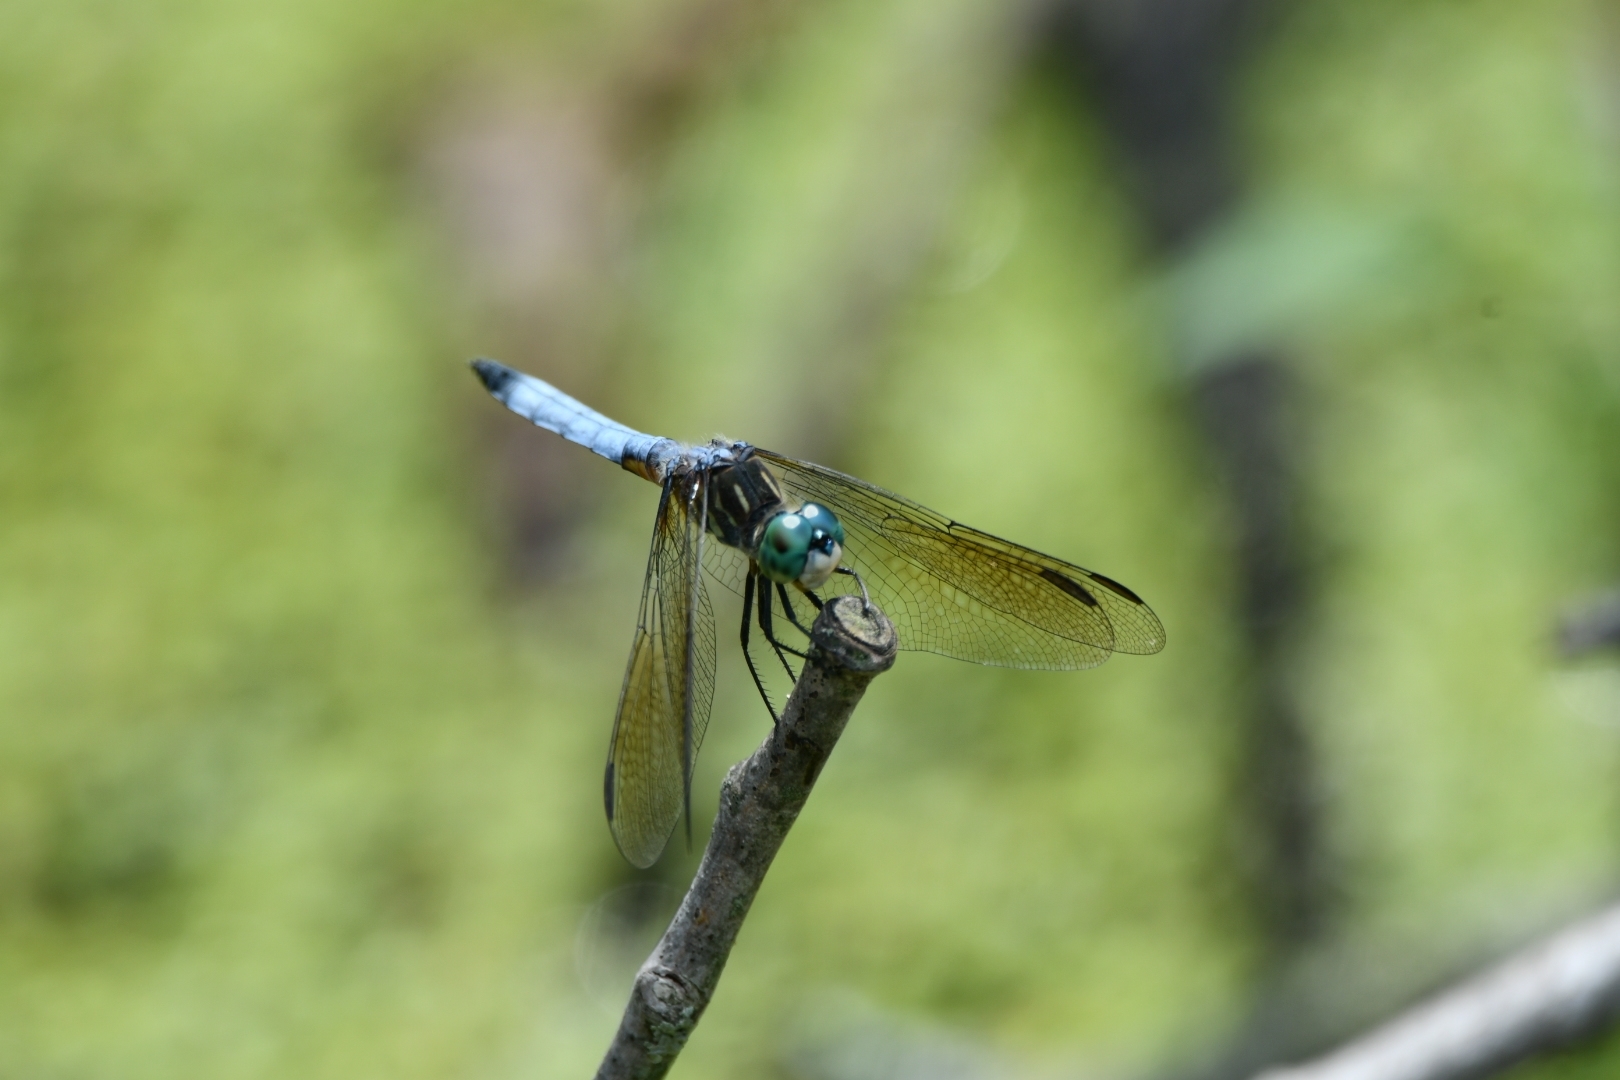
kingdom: Animalia
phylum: Arthropoda
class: Insecta
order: Odonata
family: Libellulidae
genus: Pachydiplax
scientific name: Pachydiplax longipennis
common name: Blue dasher
